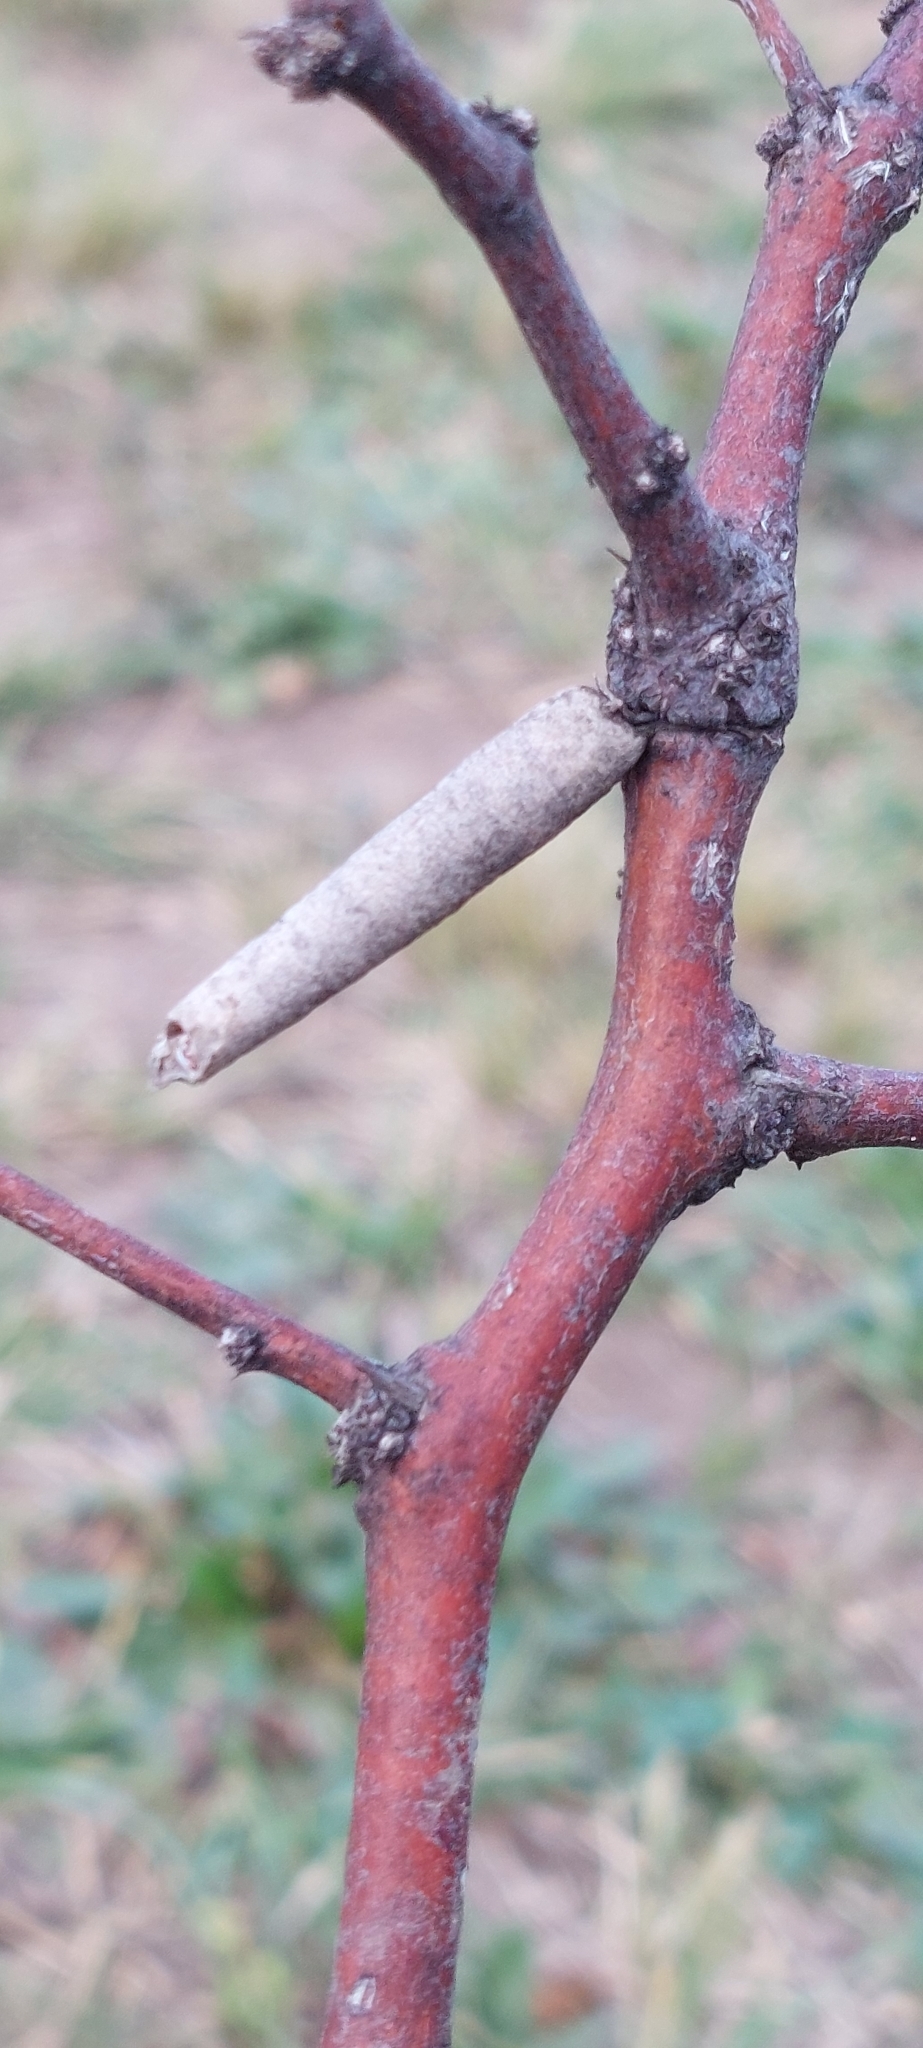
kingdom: Animalia
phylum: Arthropoda
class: Insecta
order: Lepidoptera
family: Psychidae
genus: Oiketicus
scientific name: Oiketicus geyeri
